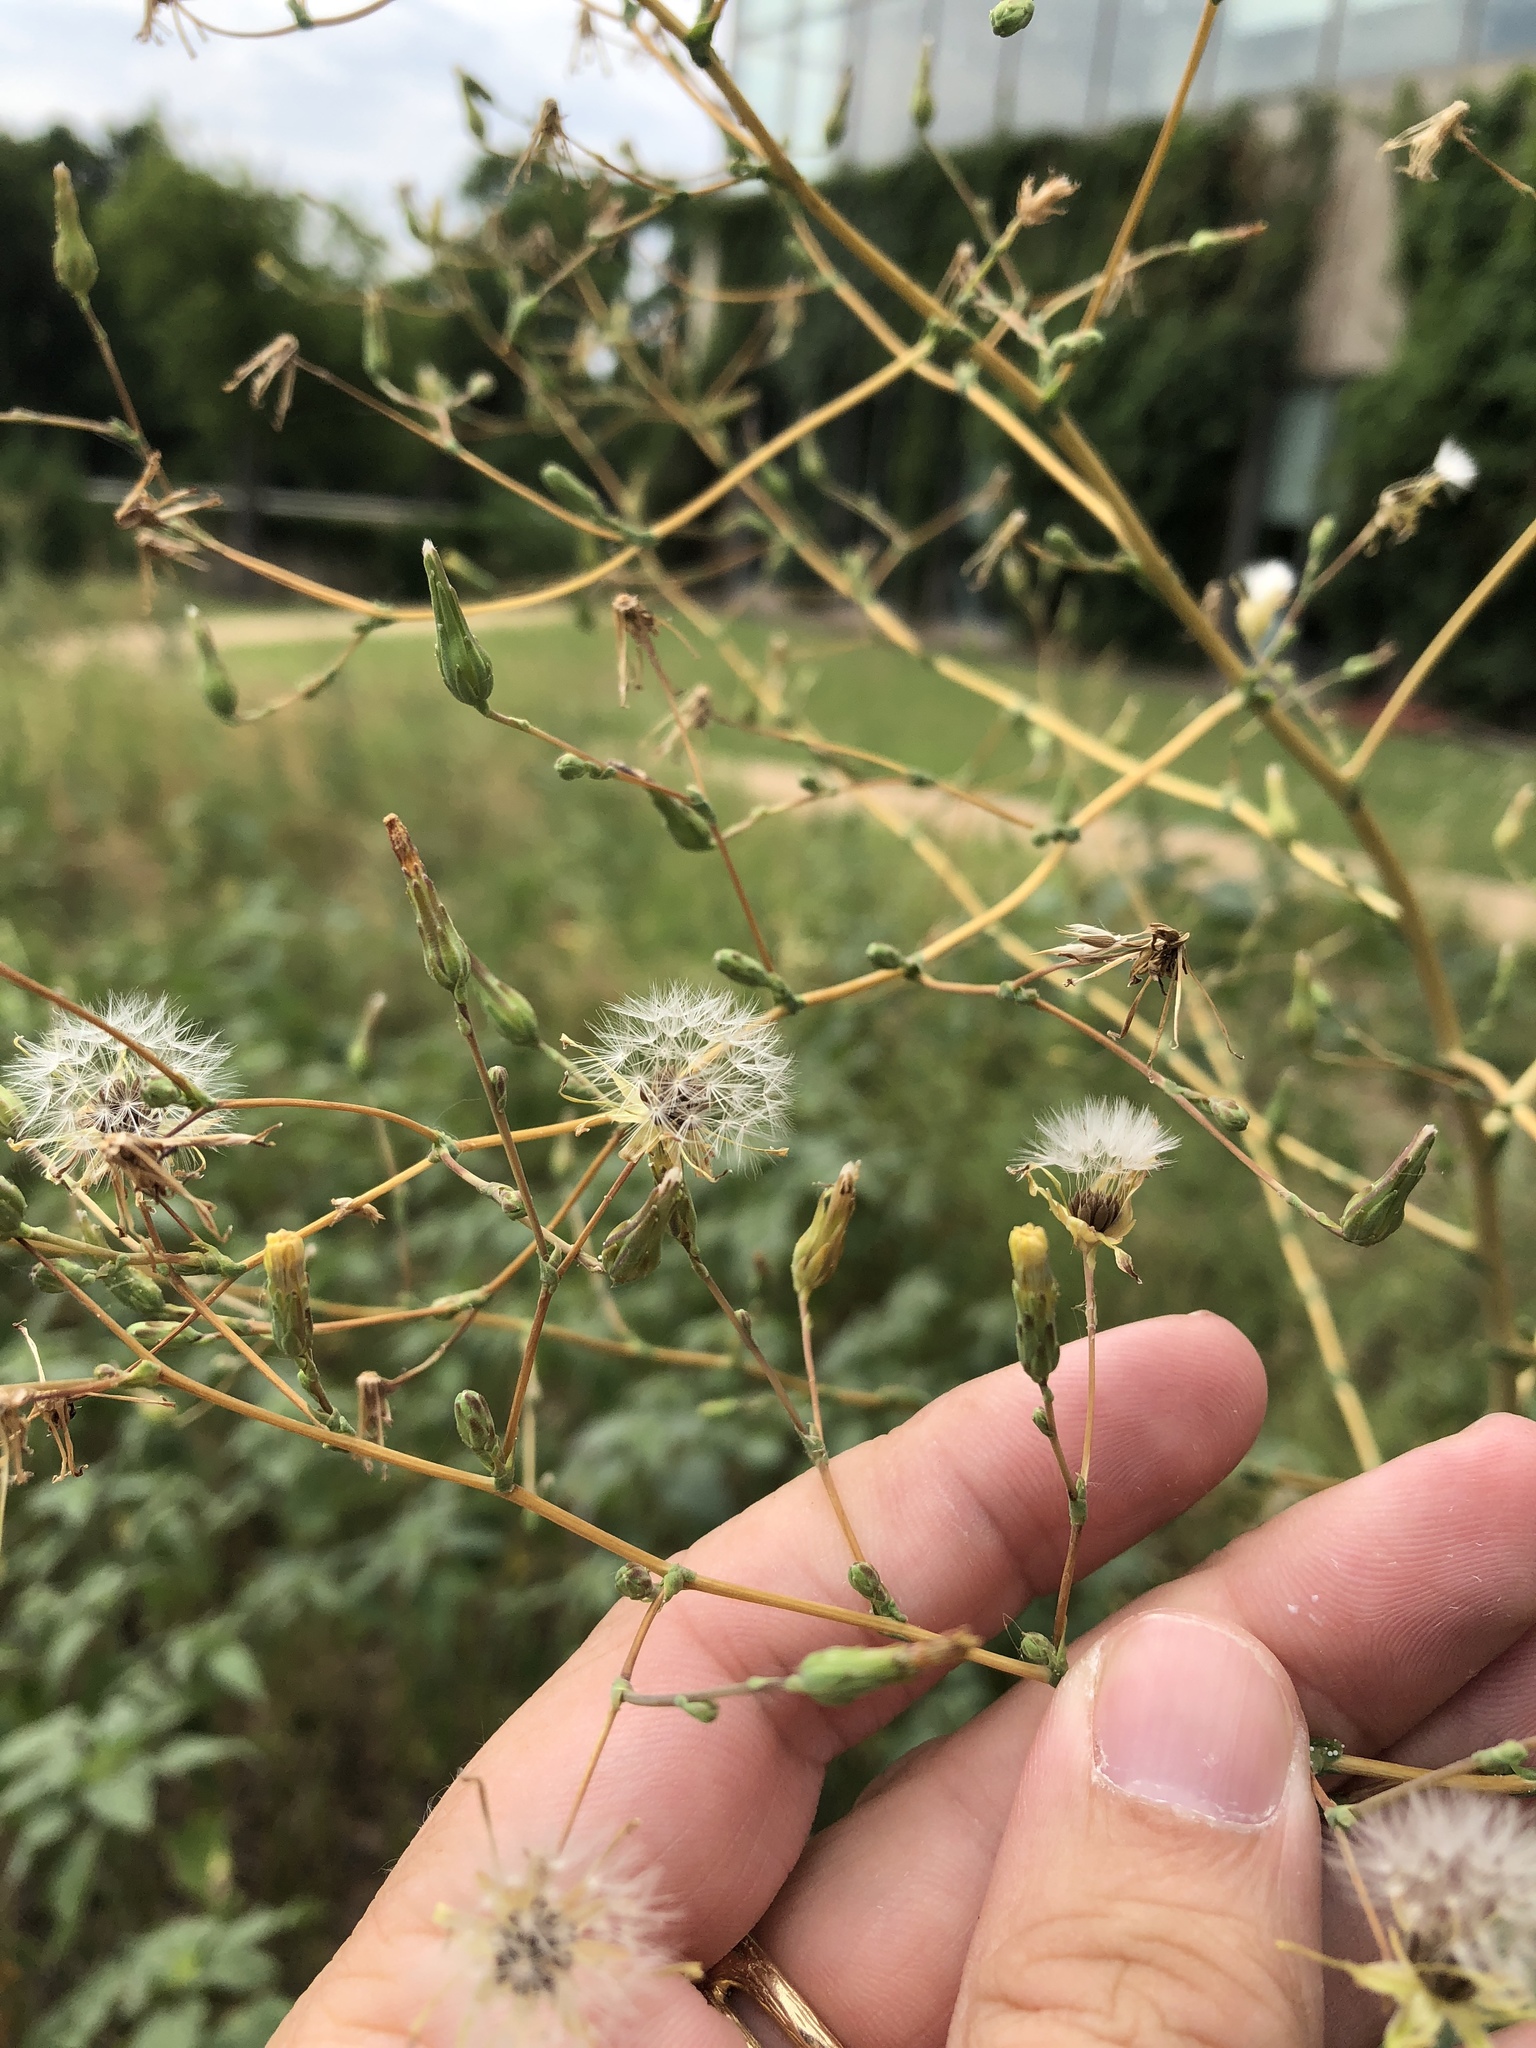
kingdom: Plantae
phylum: Tracheophyta
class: Magnoliopsida
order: Asterales
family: Asteraceae
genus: Lactuca
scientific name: Lactuca serriola
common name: Prickly lettuce
